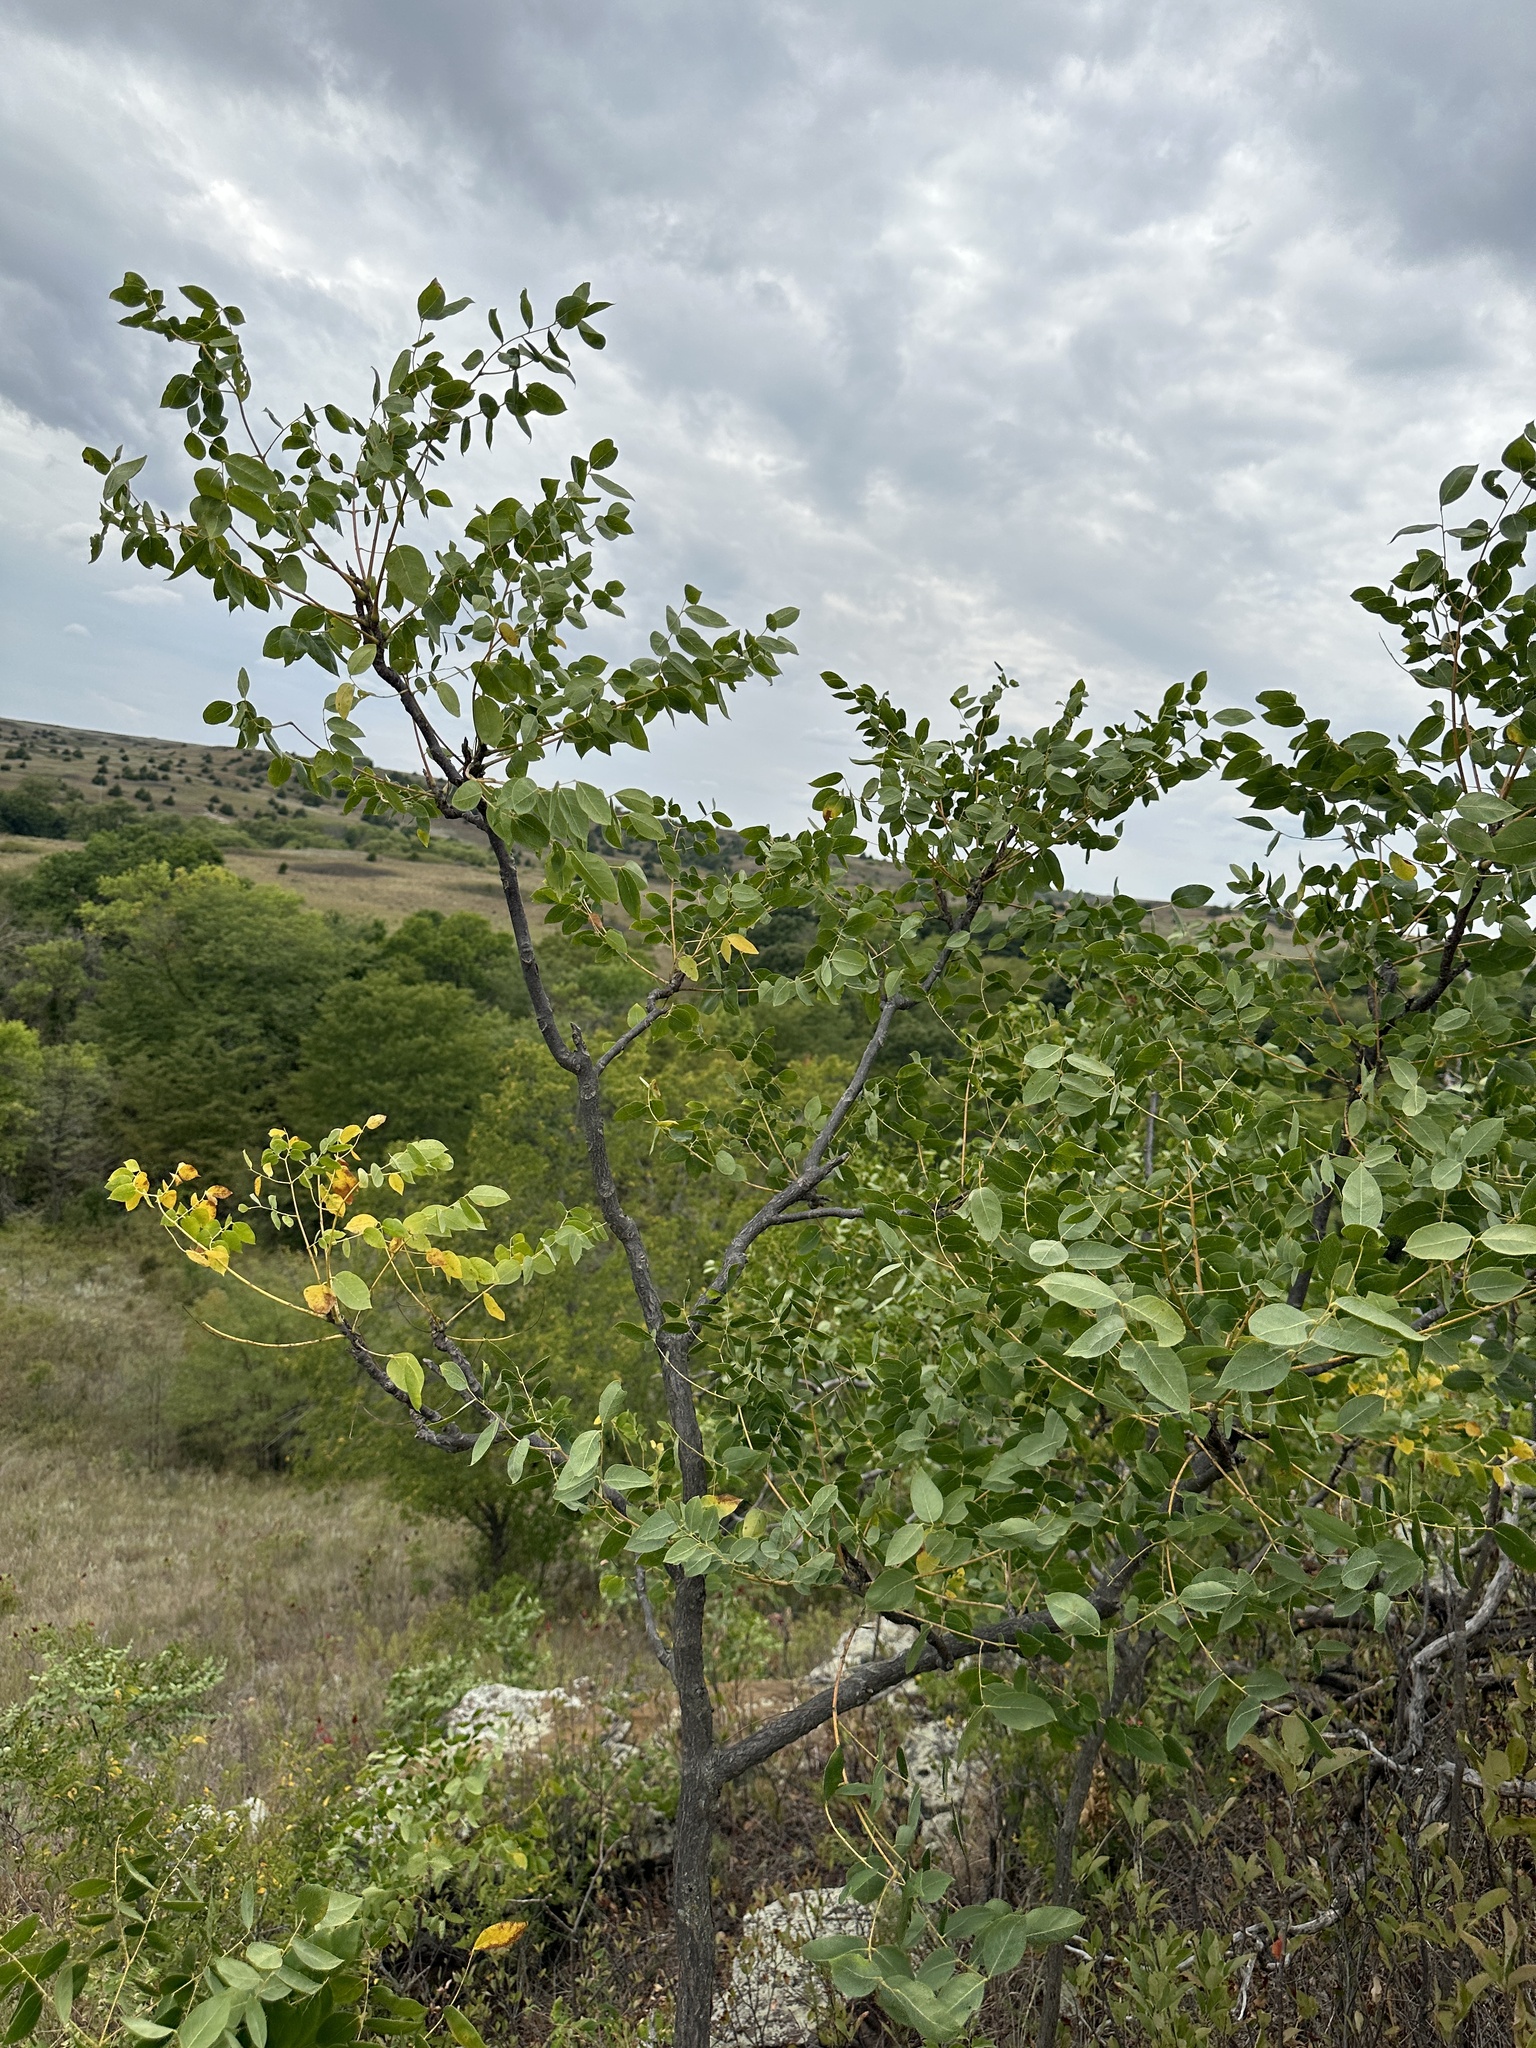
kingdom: Plantae
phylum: Tracheophyta
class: Magnoliopsida
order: Fabales
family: Fabaceae
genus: Gymnocladus
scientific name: Gymnocladus dioicus
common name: Kentucky coffee-tree
